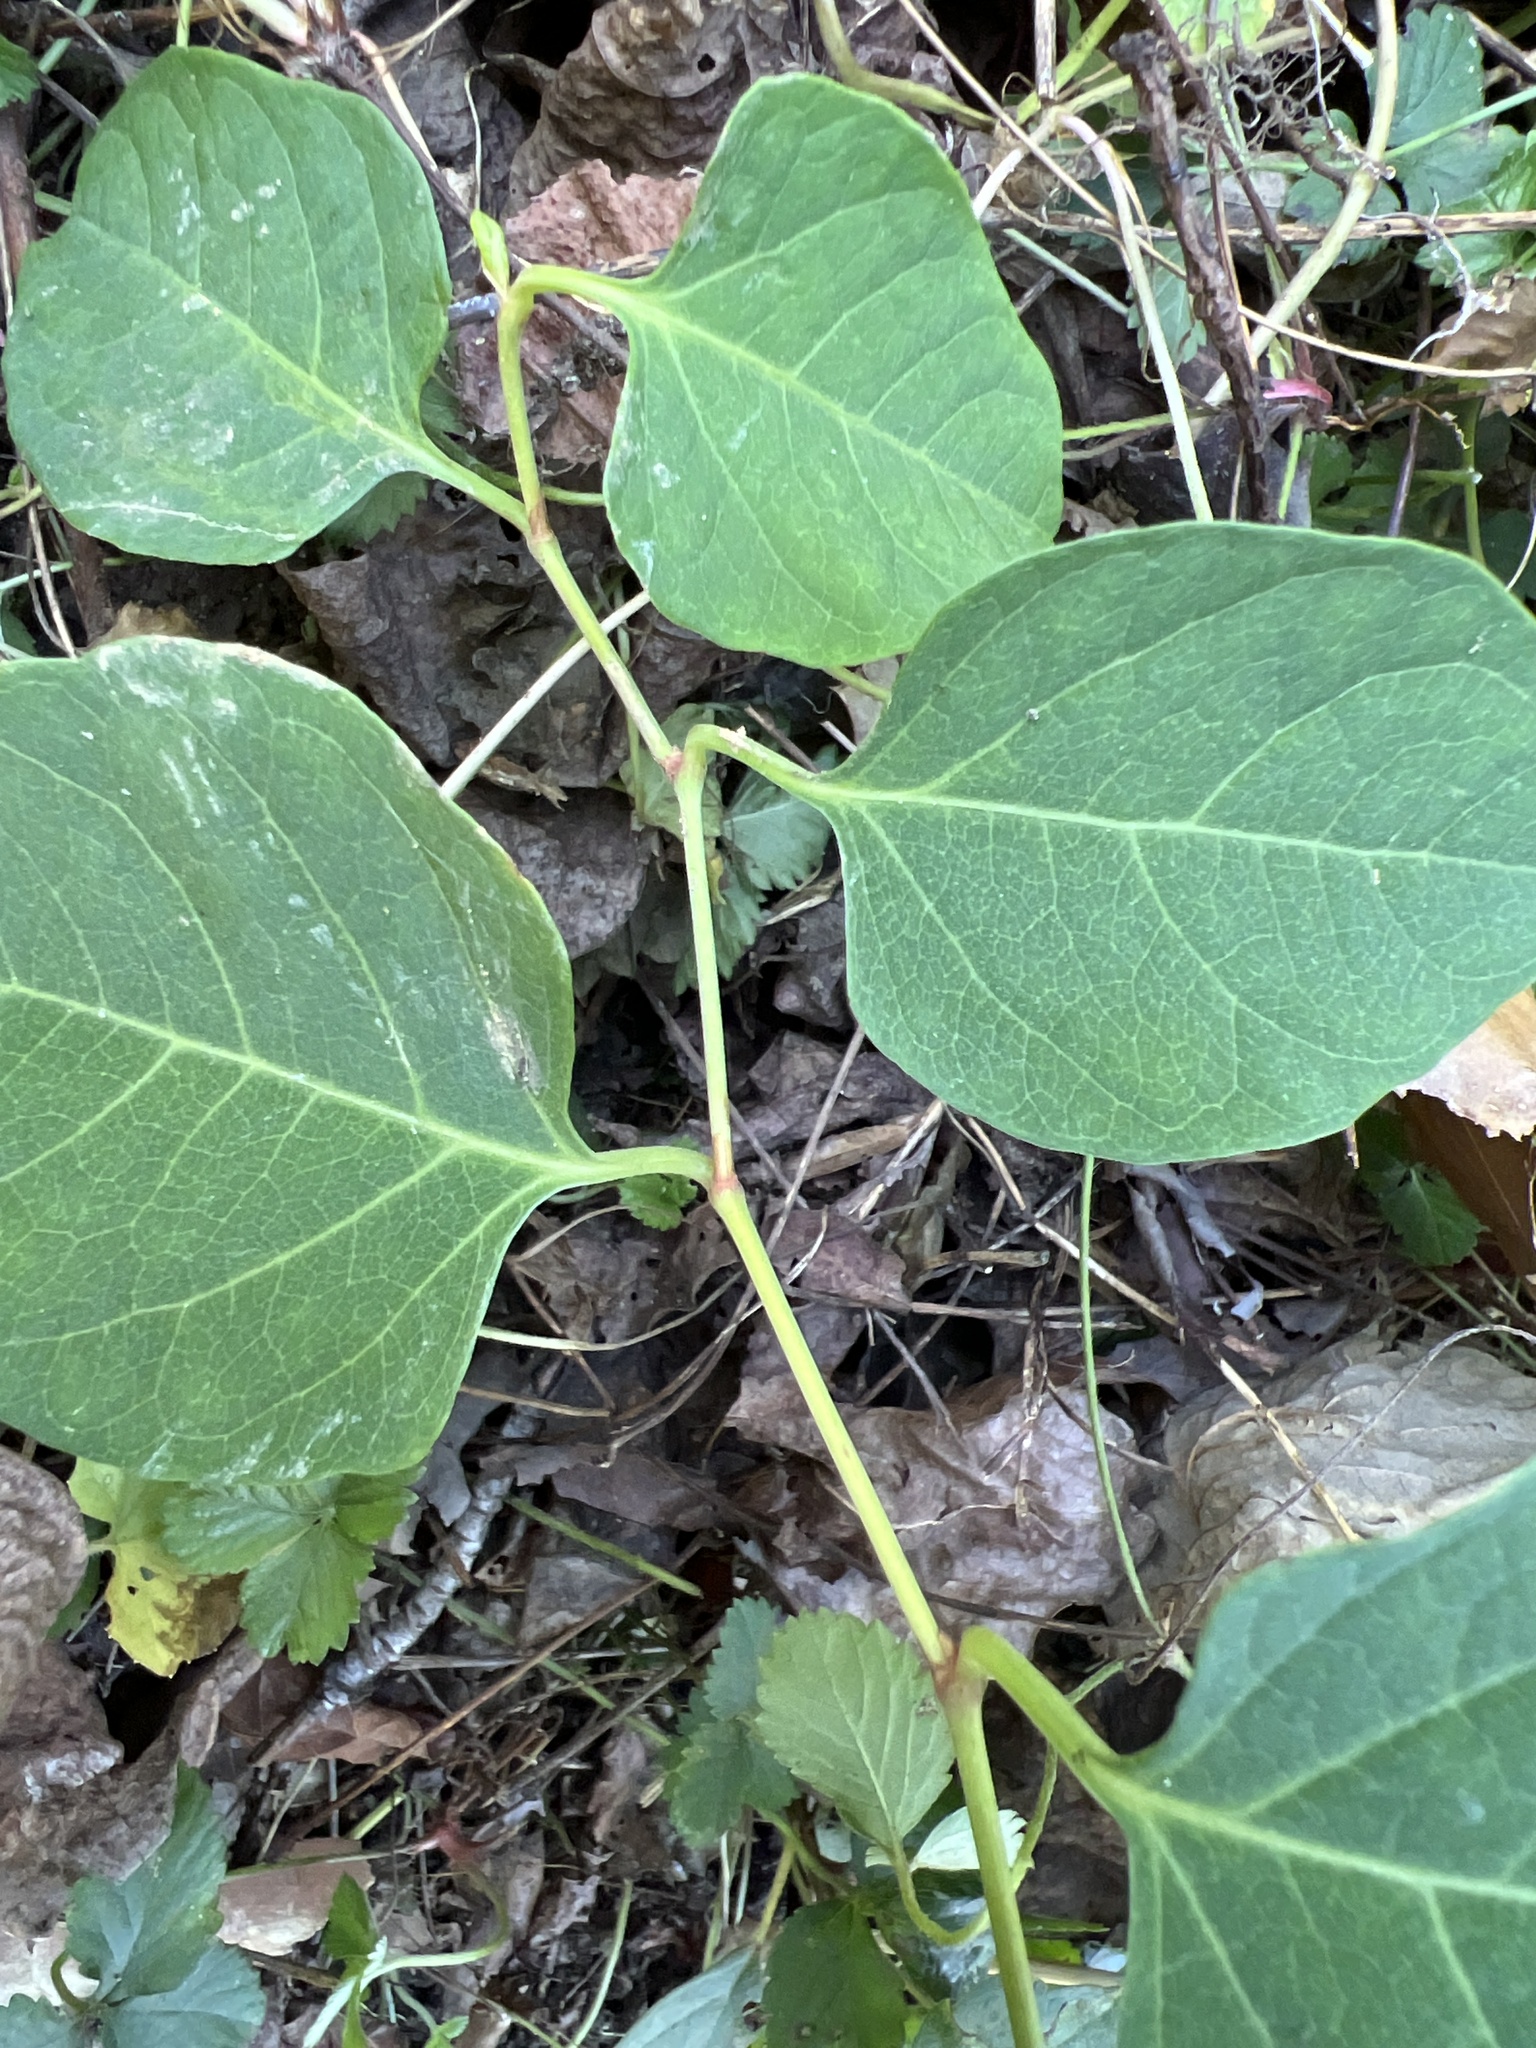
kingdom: Plantae
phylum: Tracheophyta
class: Magnoliopsida
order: Caryophyllales
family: Polygonaceae
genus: Reynoutria
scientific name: Reynoutria japonica
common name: Japanese knotweed
